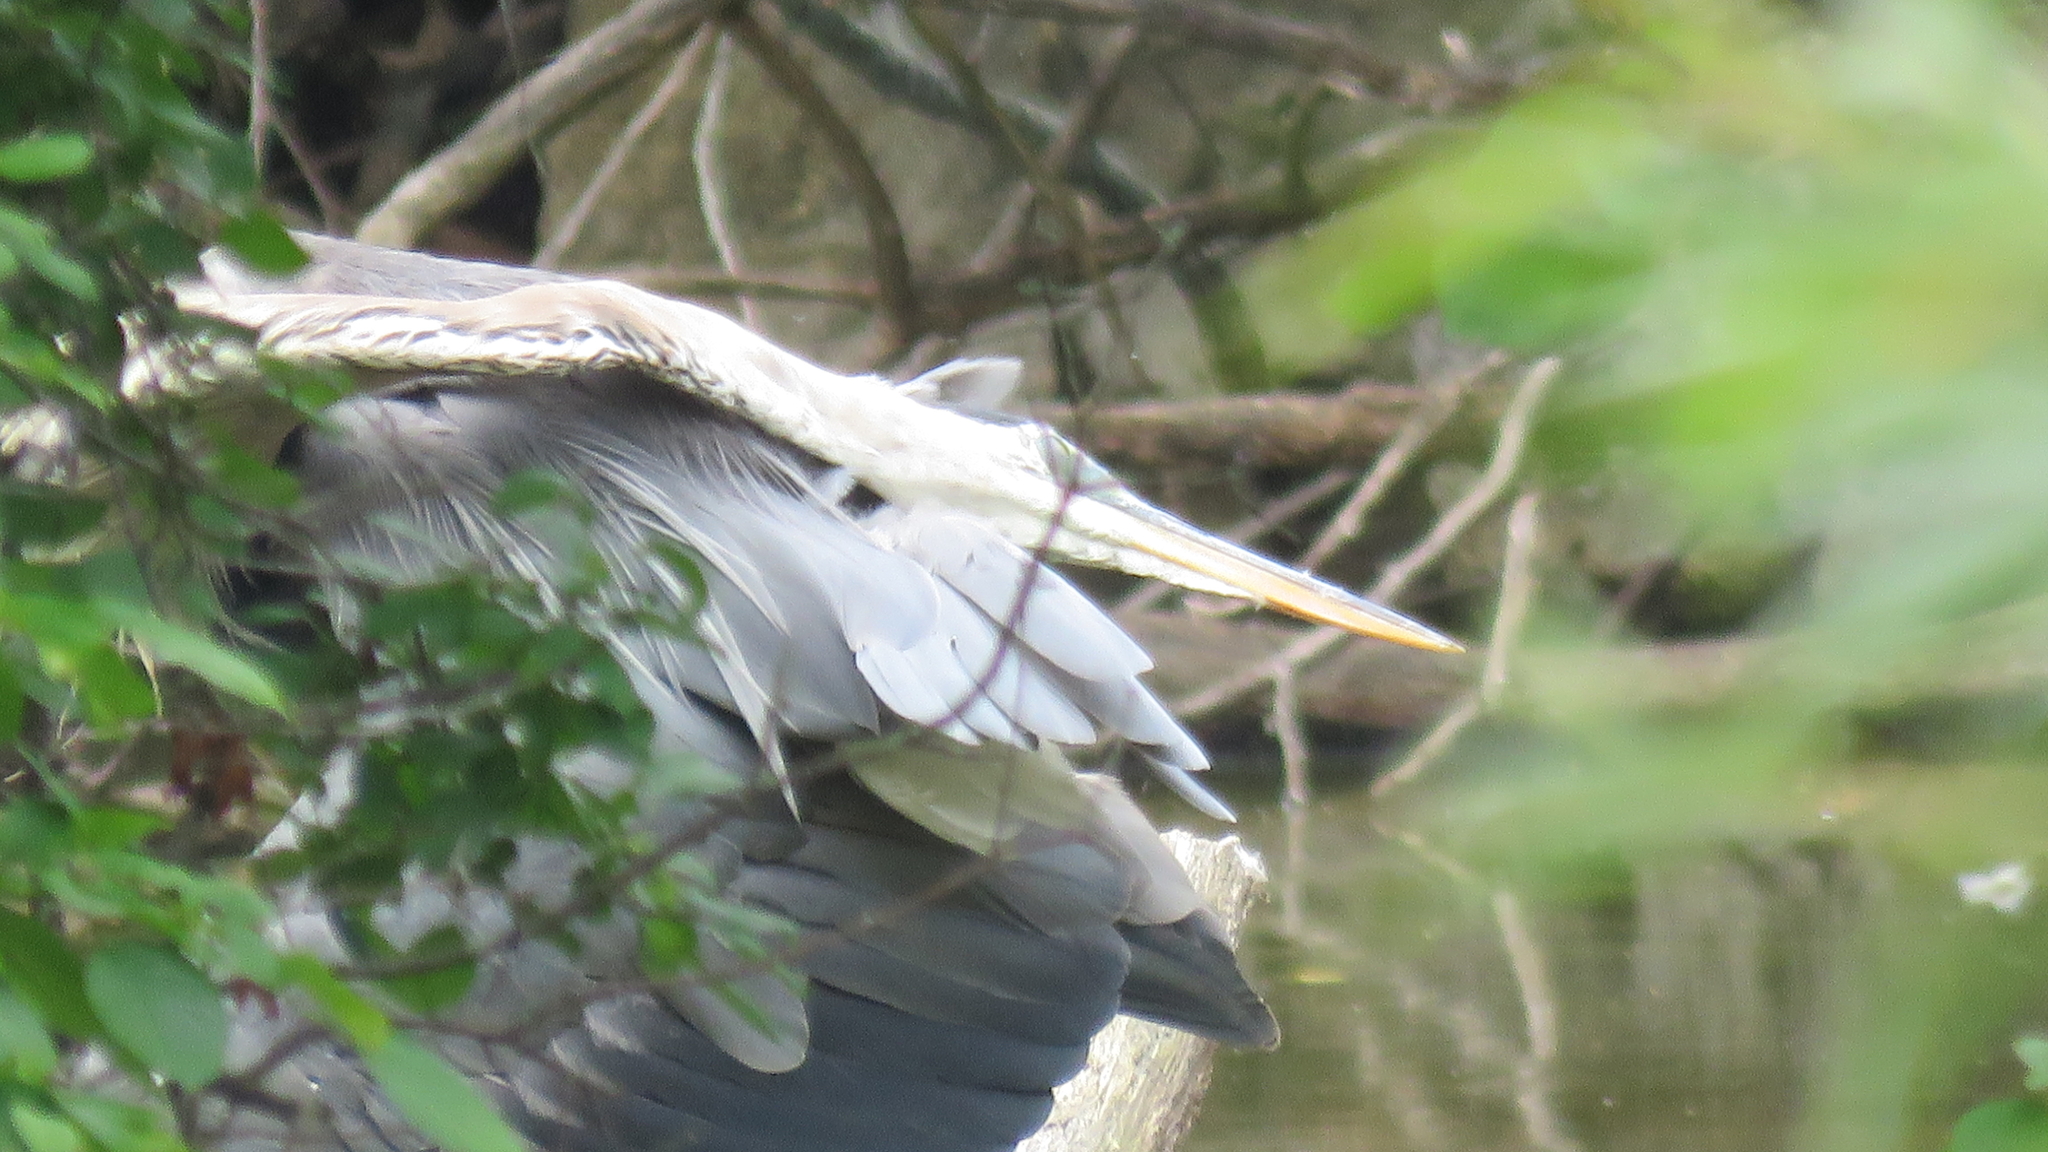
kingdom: Animalia
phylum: Chordata
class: Aves
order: Pelecaniformes
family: Ardeidae
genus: Ardea
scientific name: Ardea herodias
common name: Great blue heron
